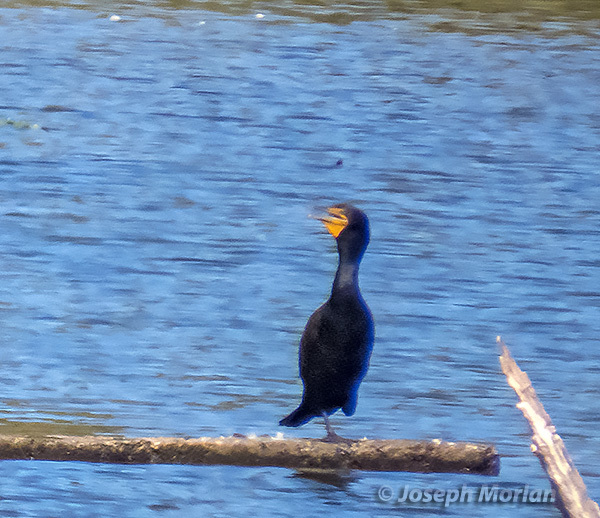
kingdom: Animalia
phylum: Chordata
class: Aves
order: Suliformes
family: Phalacrocoracidae
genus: Phalacrocorax
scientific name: Phalacrocorax auritus
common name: Double-crested cormorant
